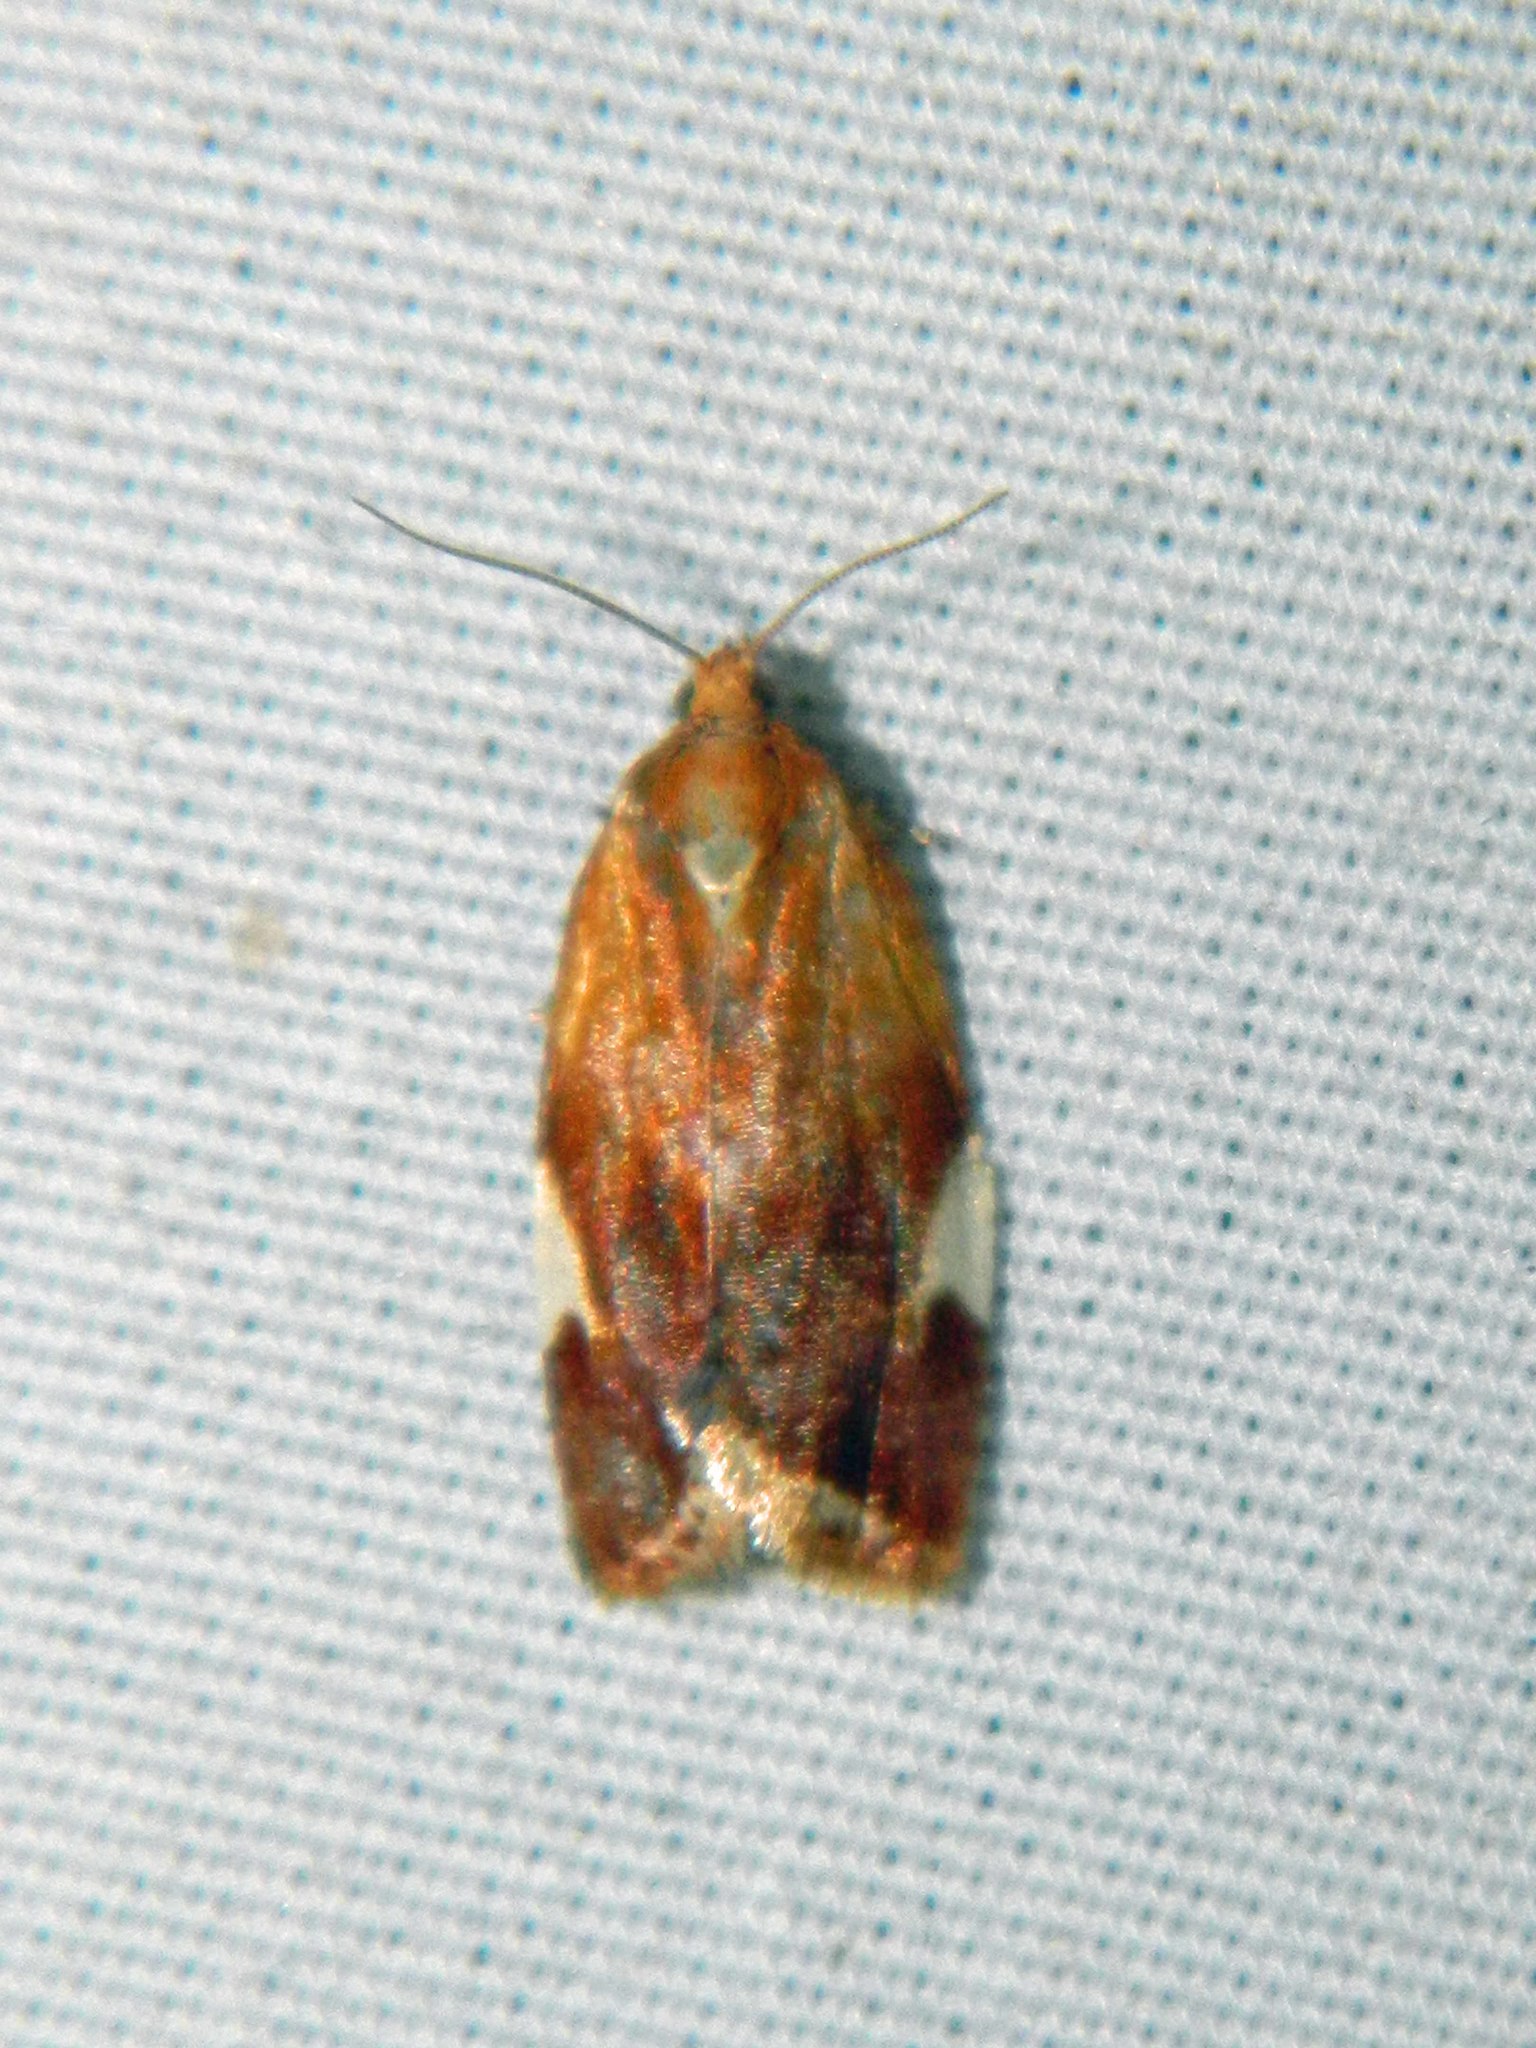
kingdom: Animalia
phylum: Arthropoda
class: Insecta
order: Lepidoptera
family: Tortricidae
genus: Clepsis
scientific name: Clepsis persicana
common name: White triangle tortrix
